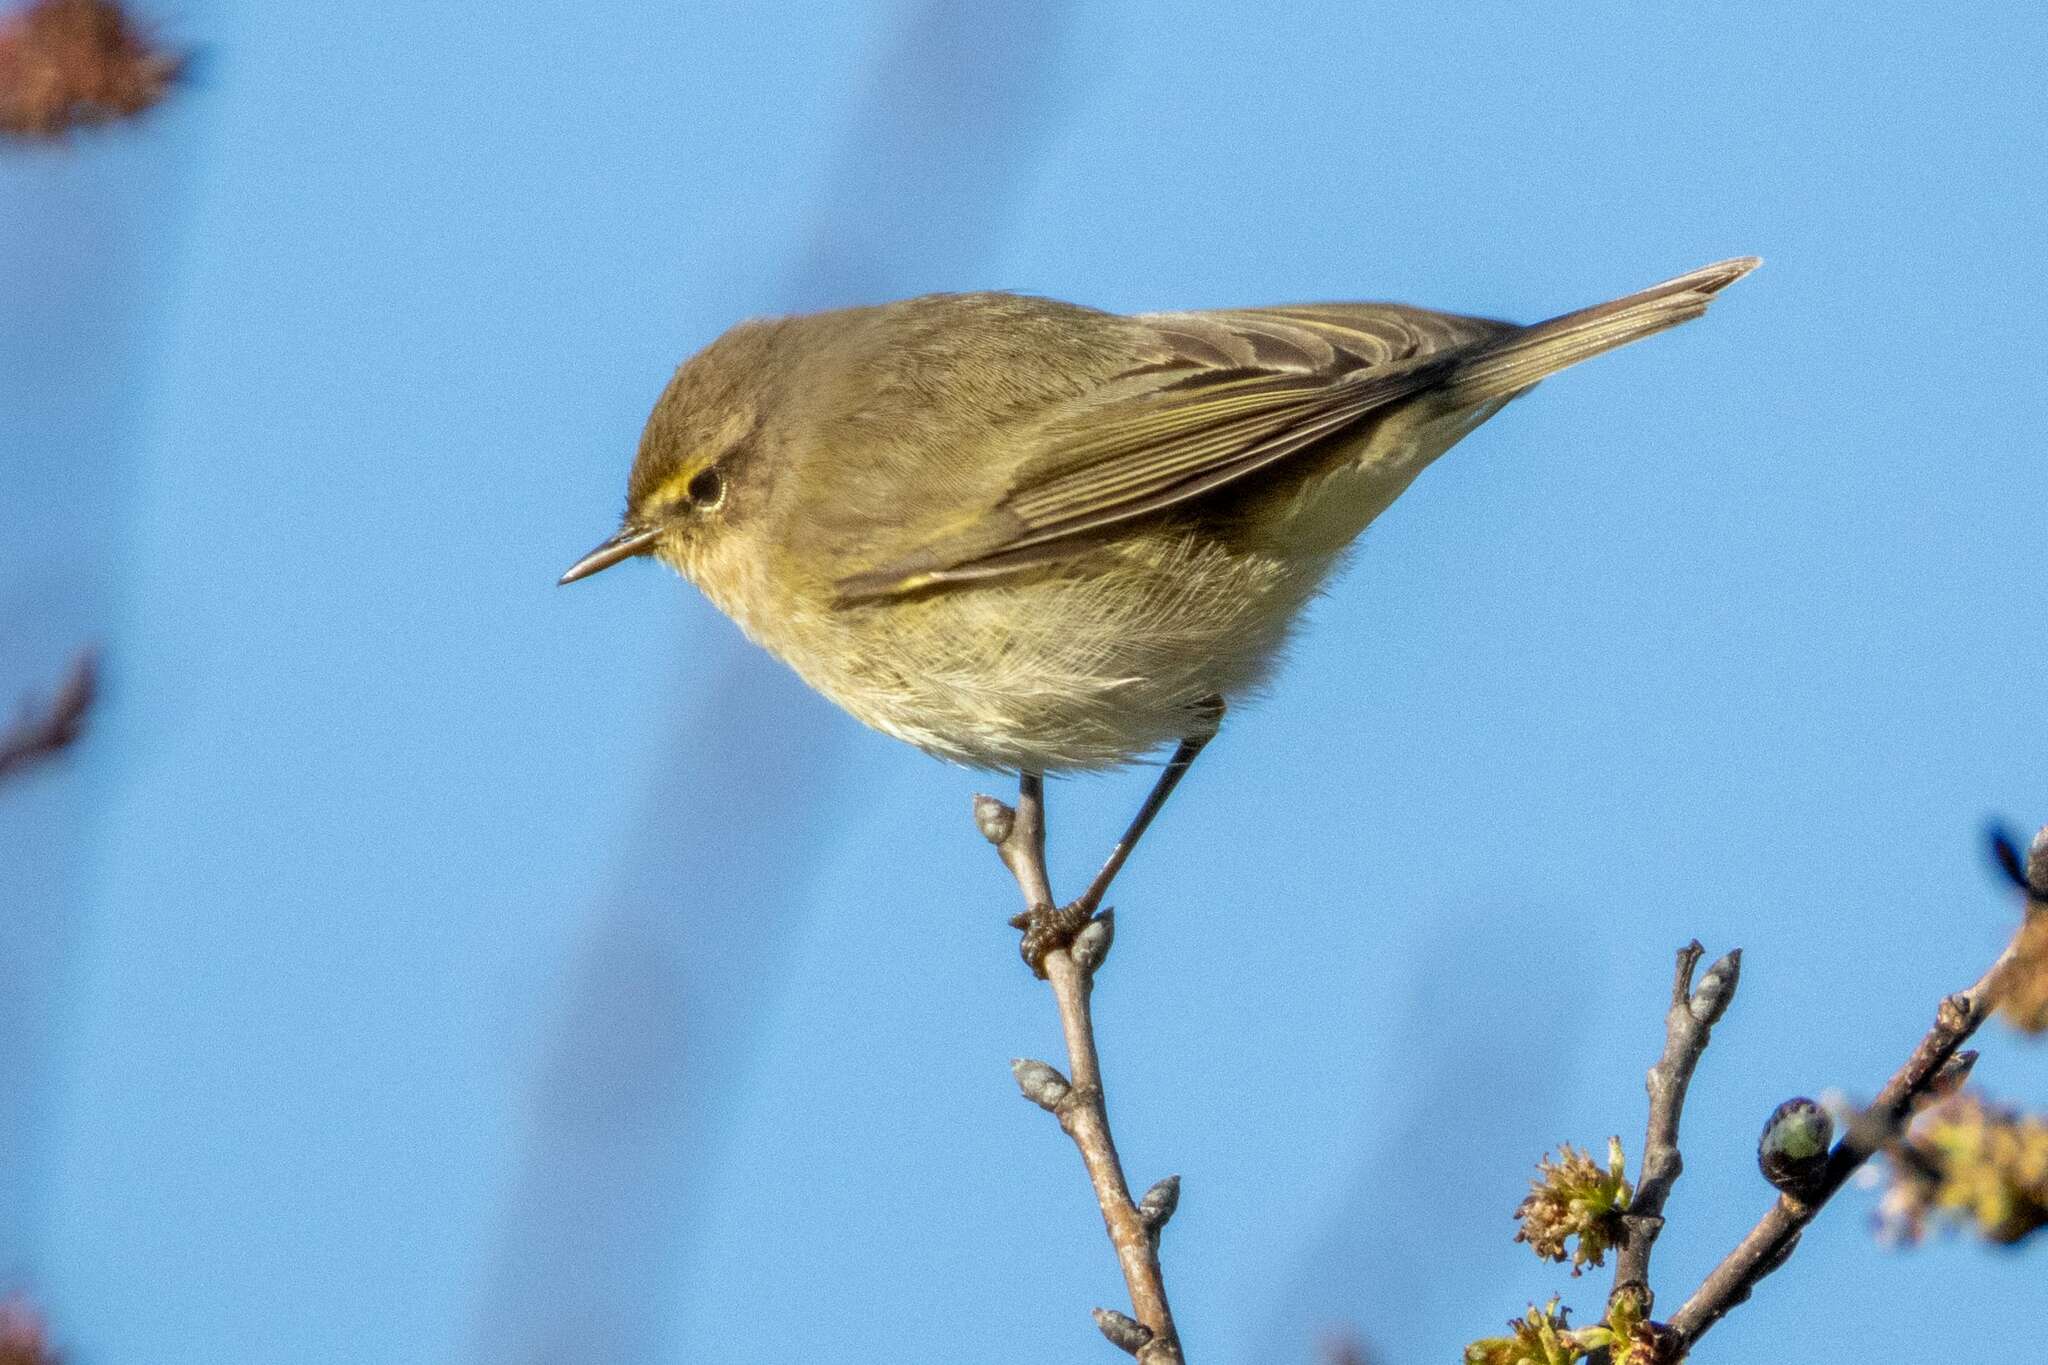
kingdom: Animalia
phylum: Chordata
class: Aves
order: Passeriformes
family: Phylloscopidae
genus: Phylloscopus
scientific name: Phylloscopus collybita
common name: Common chiffchaff
